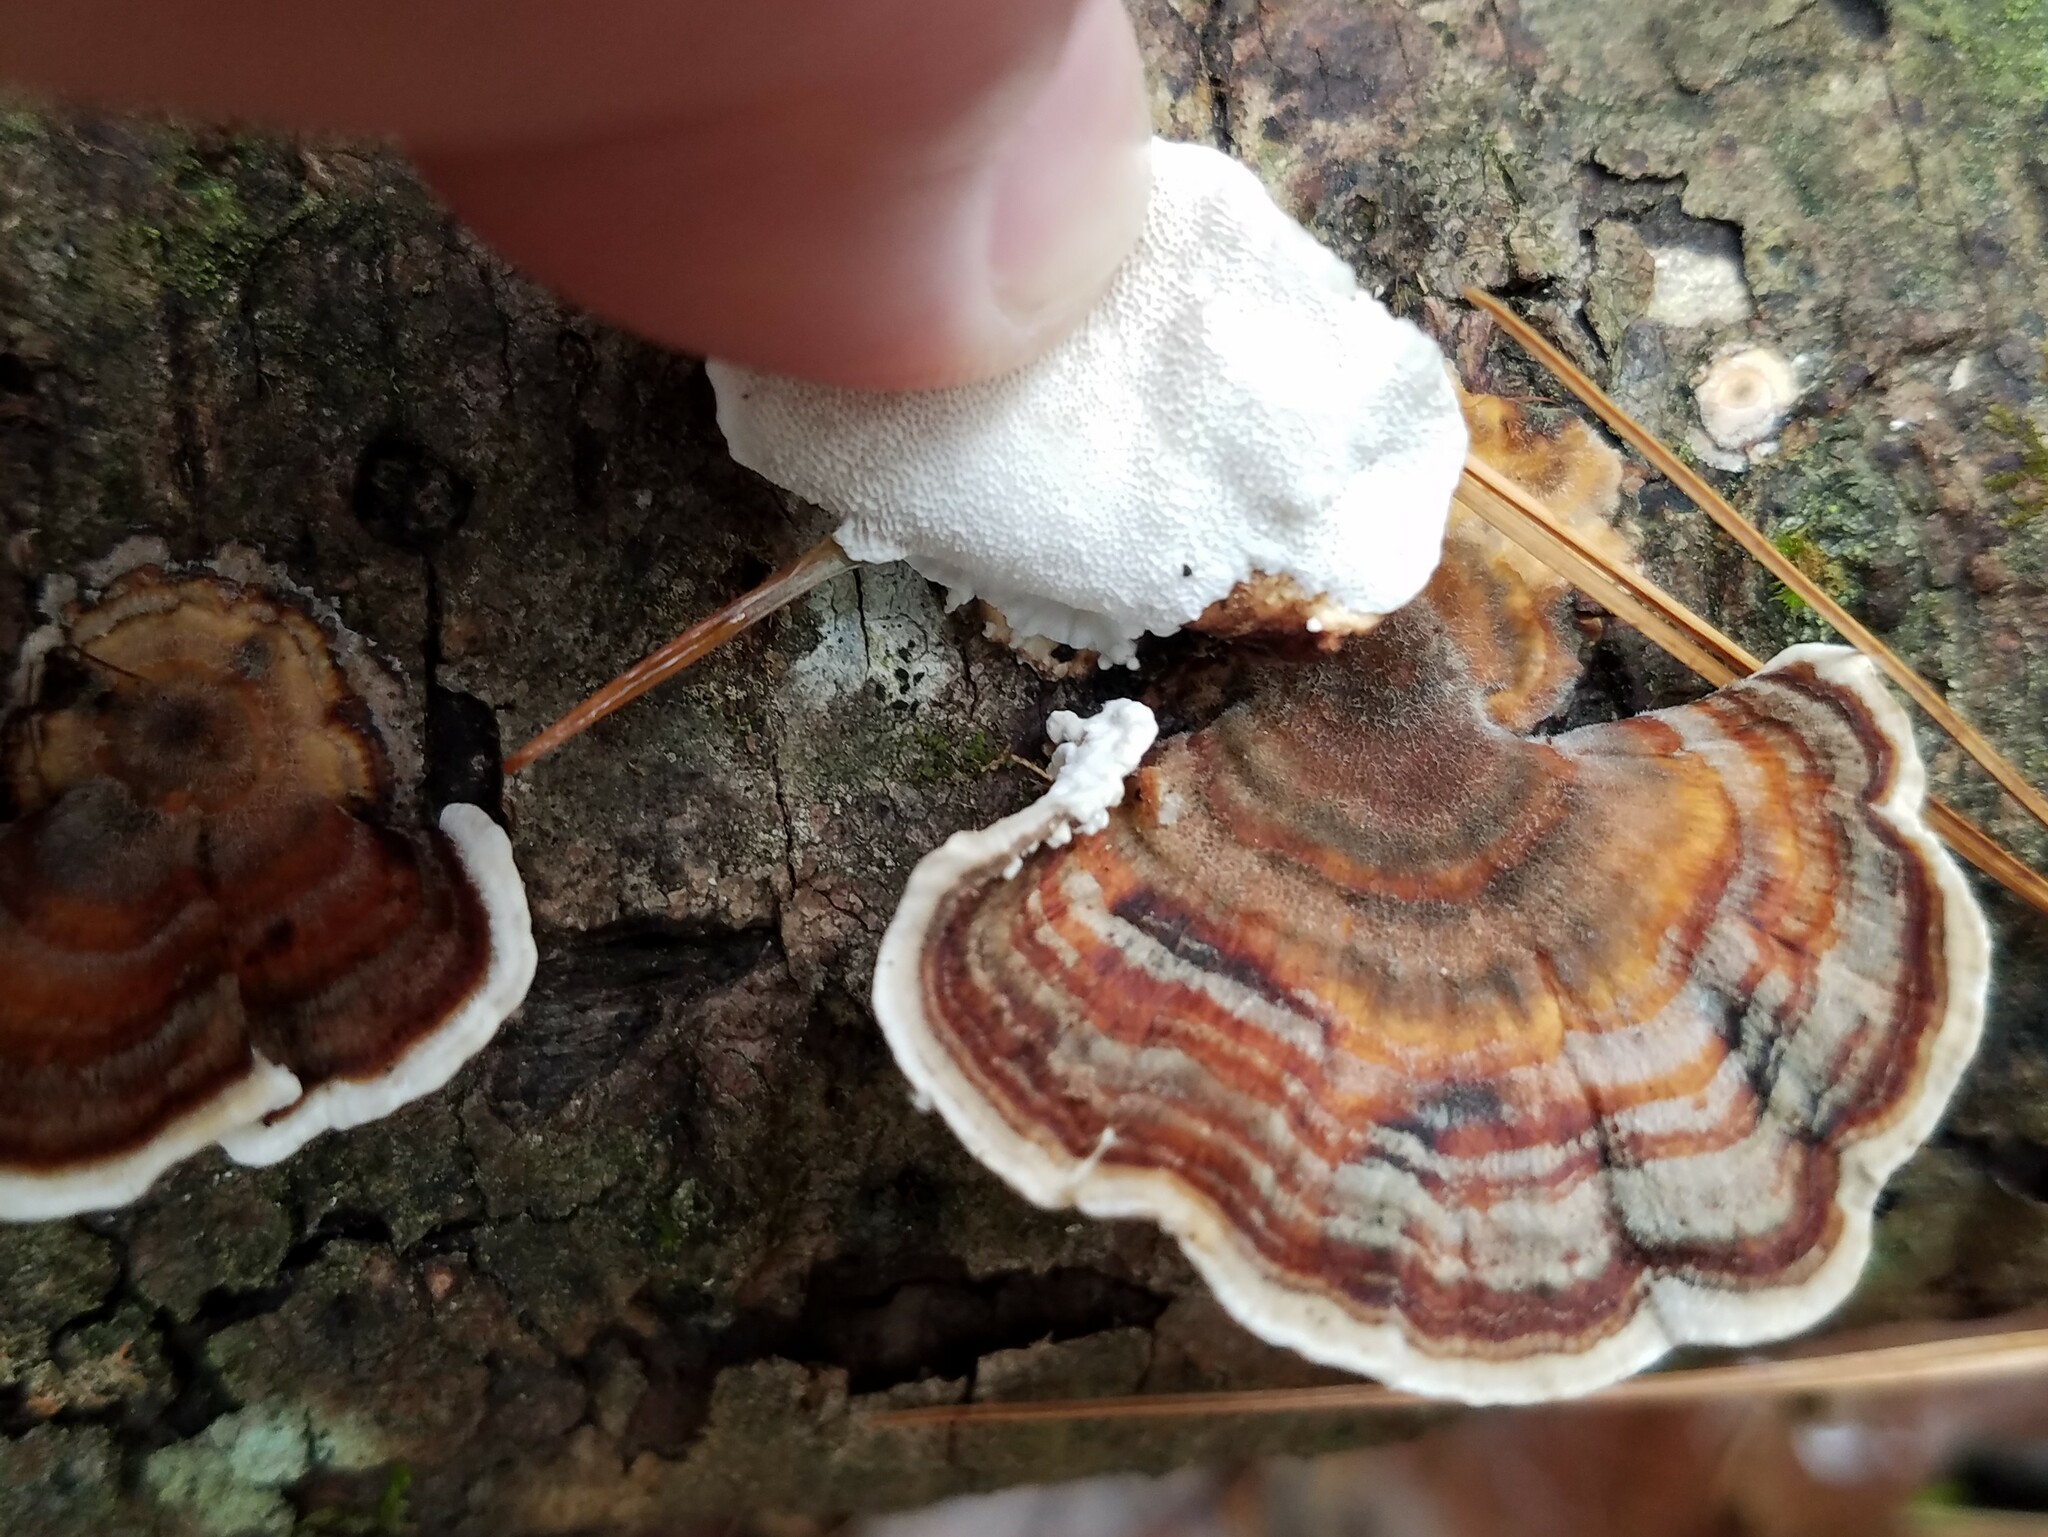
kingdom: Fungi
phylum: Basidiomycota
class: Agaricomycetes
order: Polyporales
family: Polyporaceae
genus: Trametes
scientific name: Trametes versicolor
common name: Turkeytail
